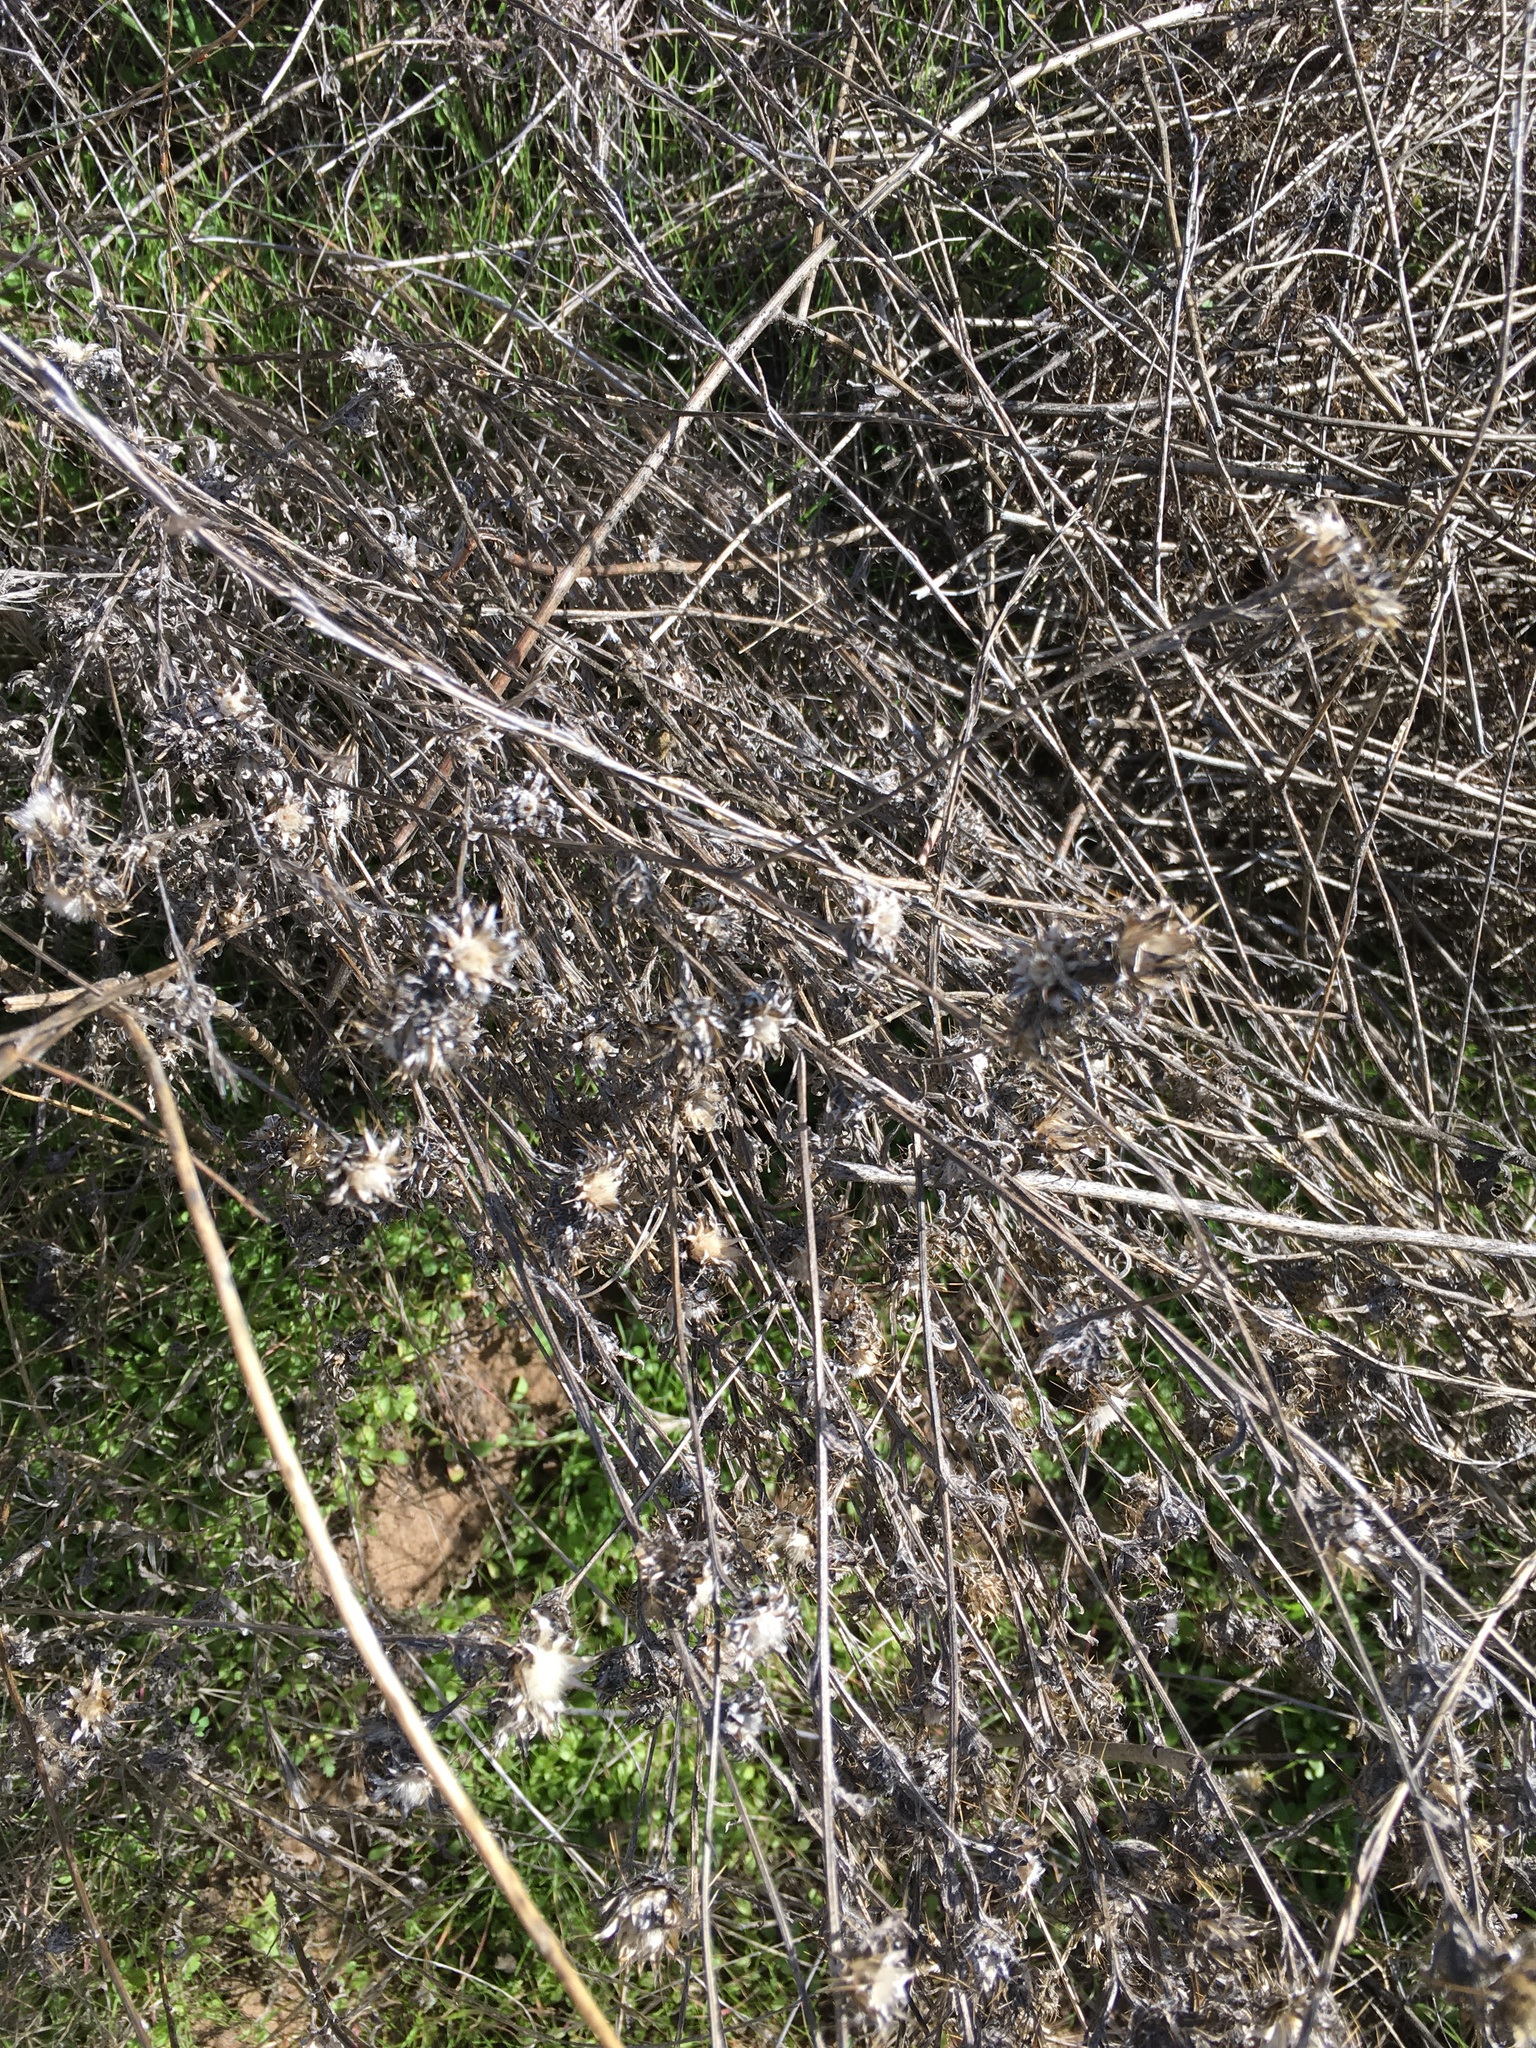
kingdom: Plantae
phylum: Tracheophyta
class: Magnoliopsida
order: Asterales
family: Asteraceae
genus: Centaurea
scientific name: Centaurea melitensis
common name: Maltese star-thistle
